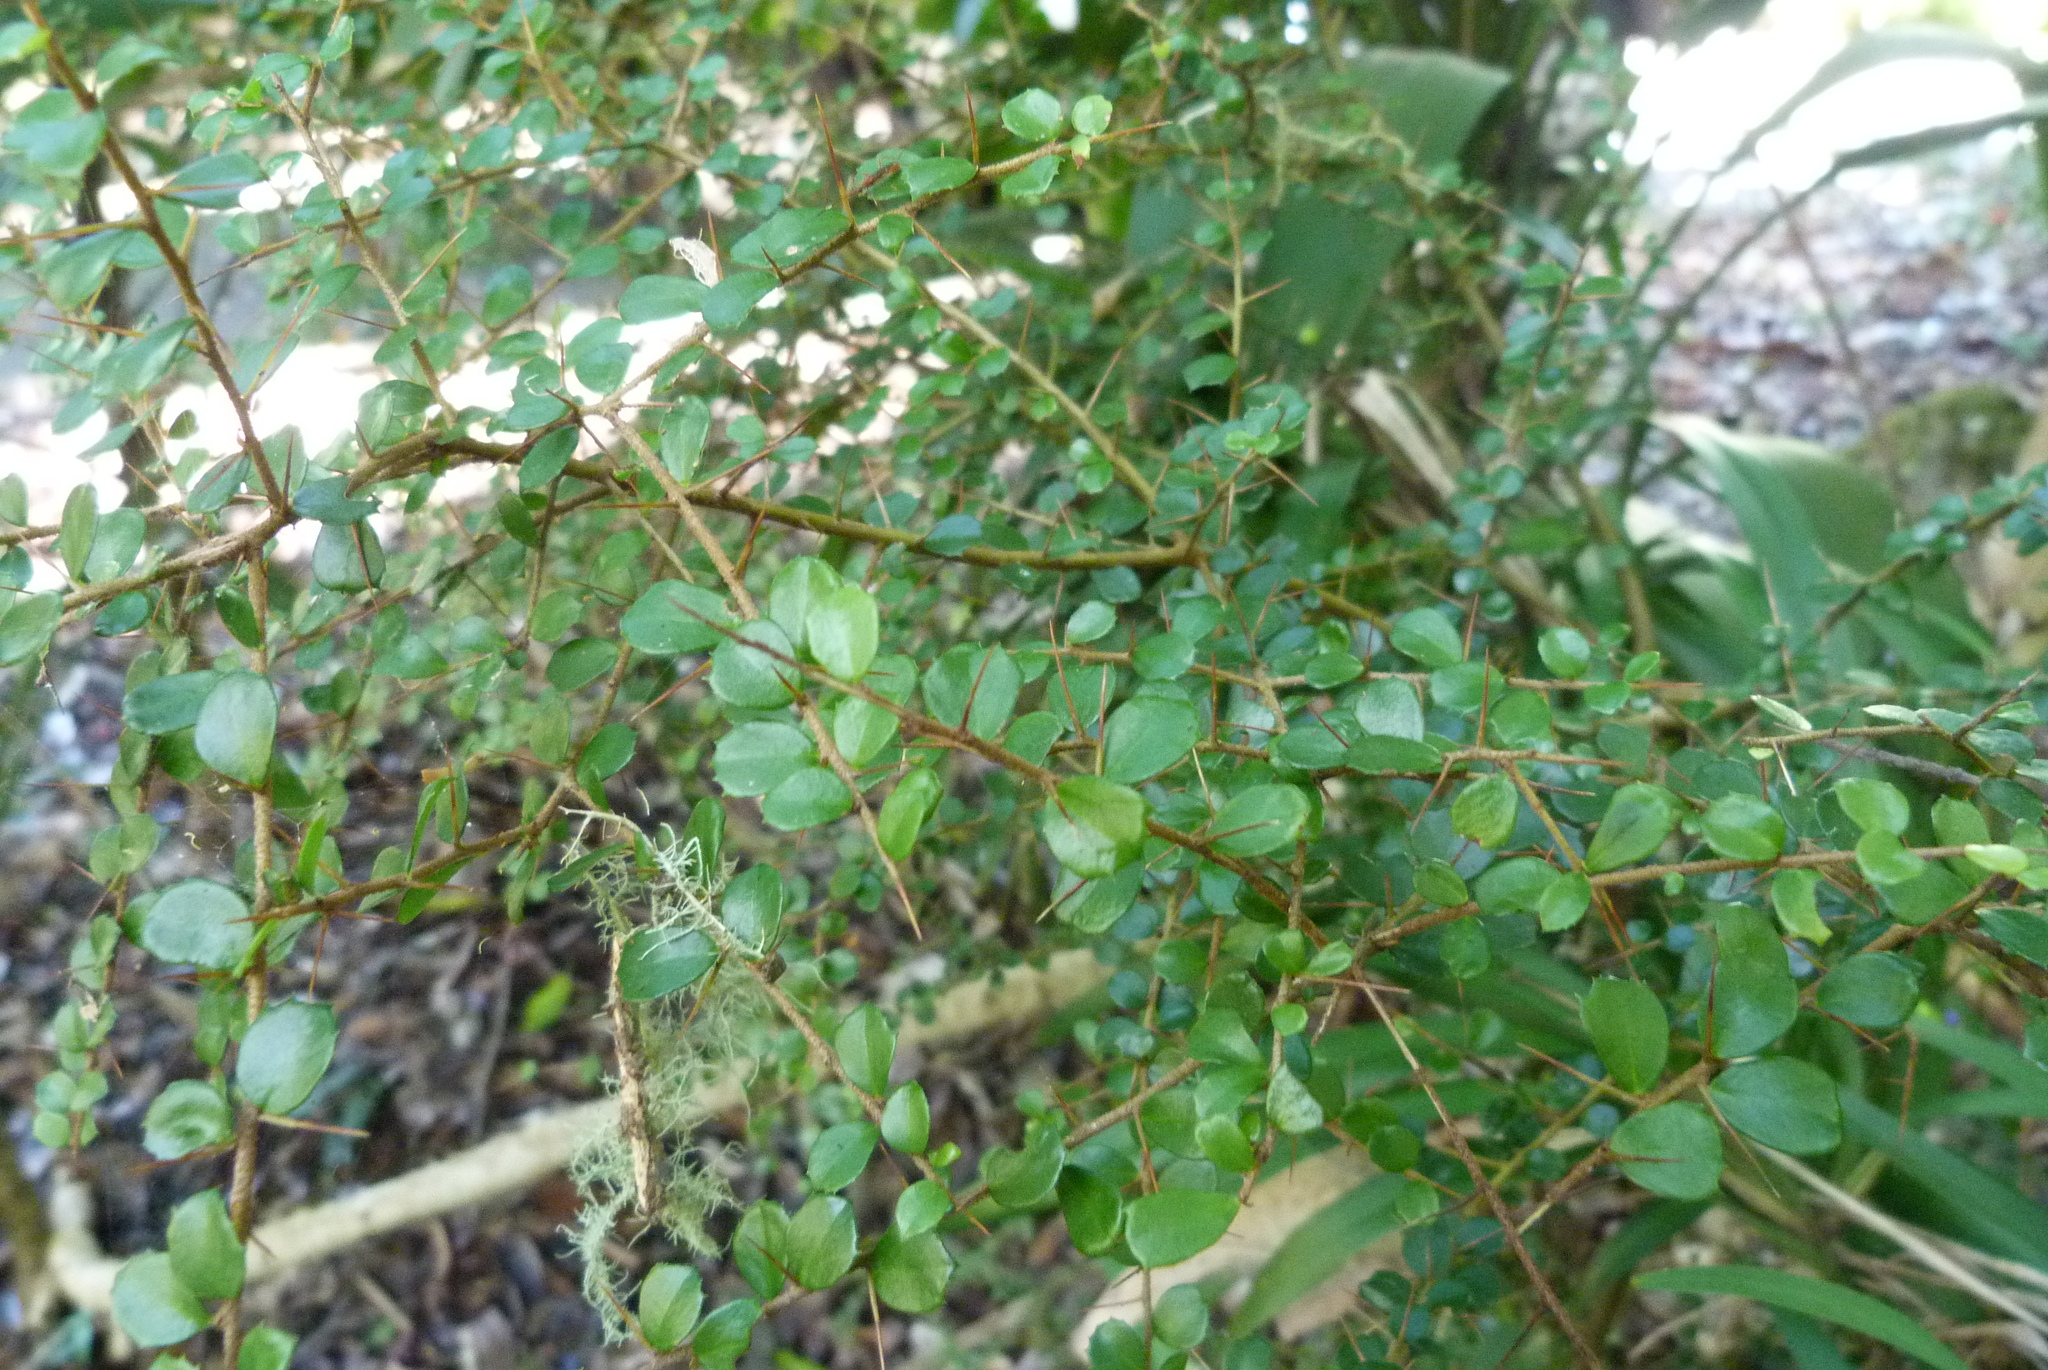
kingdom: Plantae
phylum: Tracheophyta
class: Magnoliopsida
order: Apiales
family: Pittosporaceae
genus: Pittosporum
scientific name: Pittosporum multiflorum
